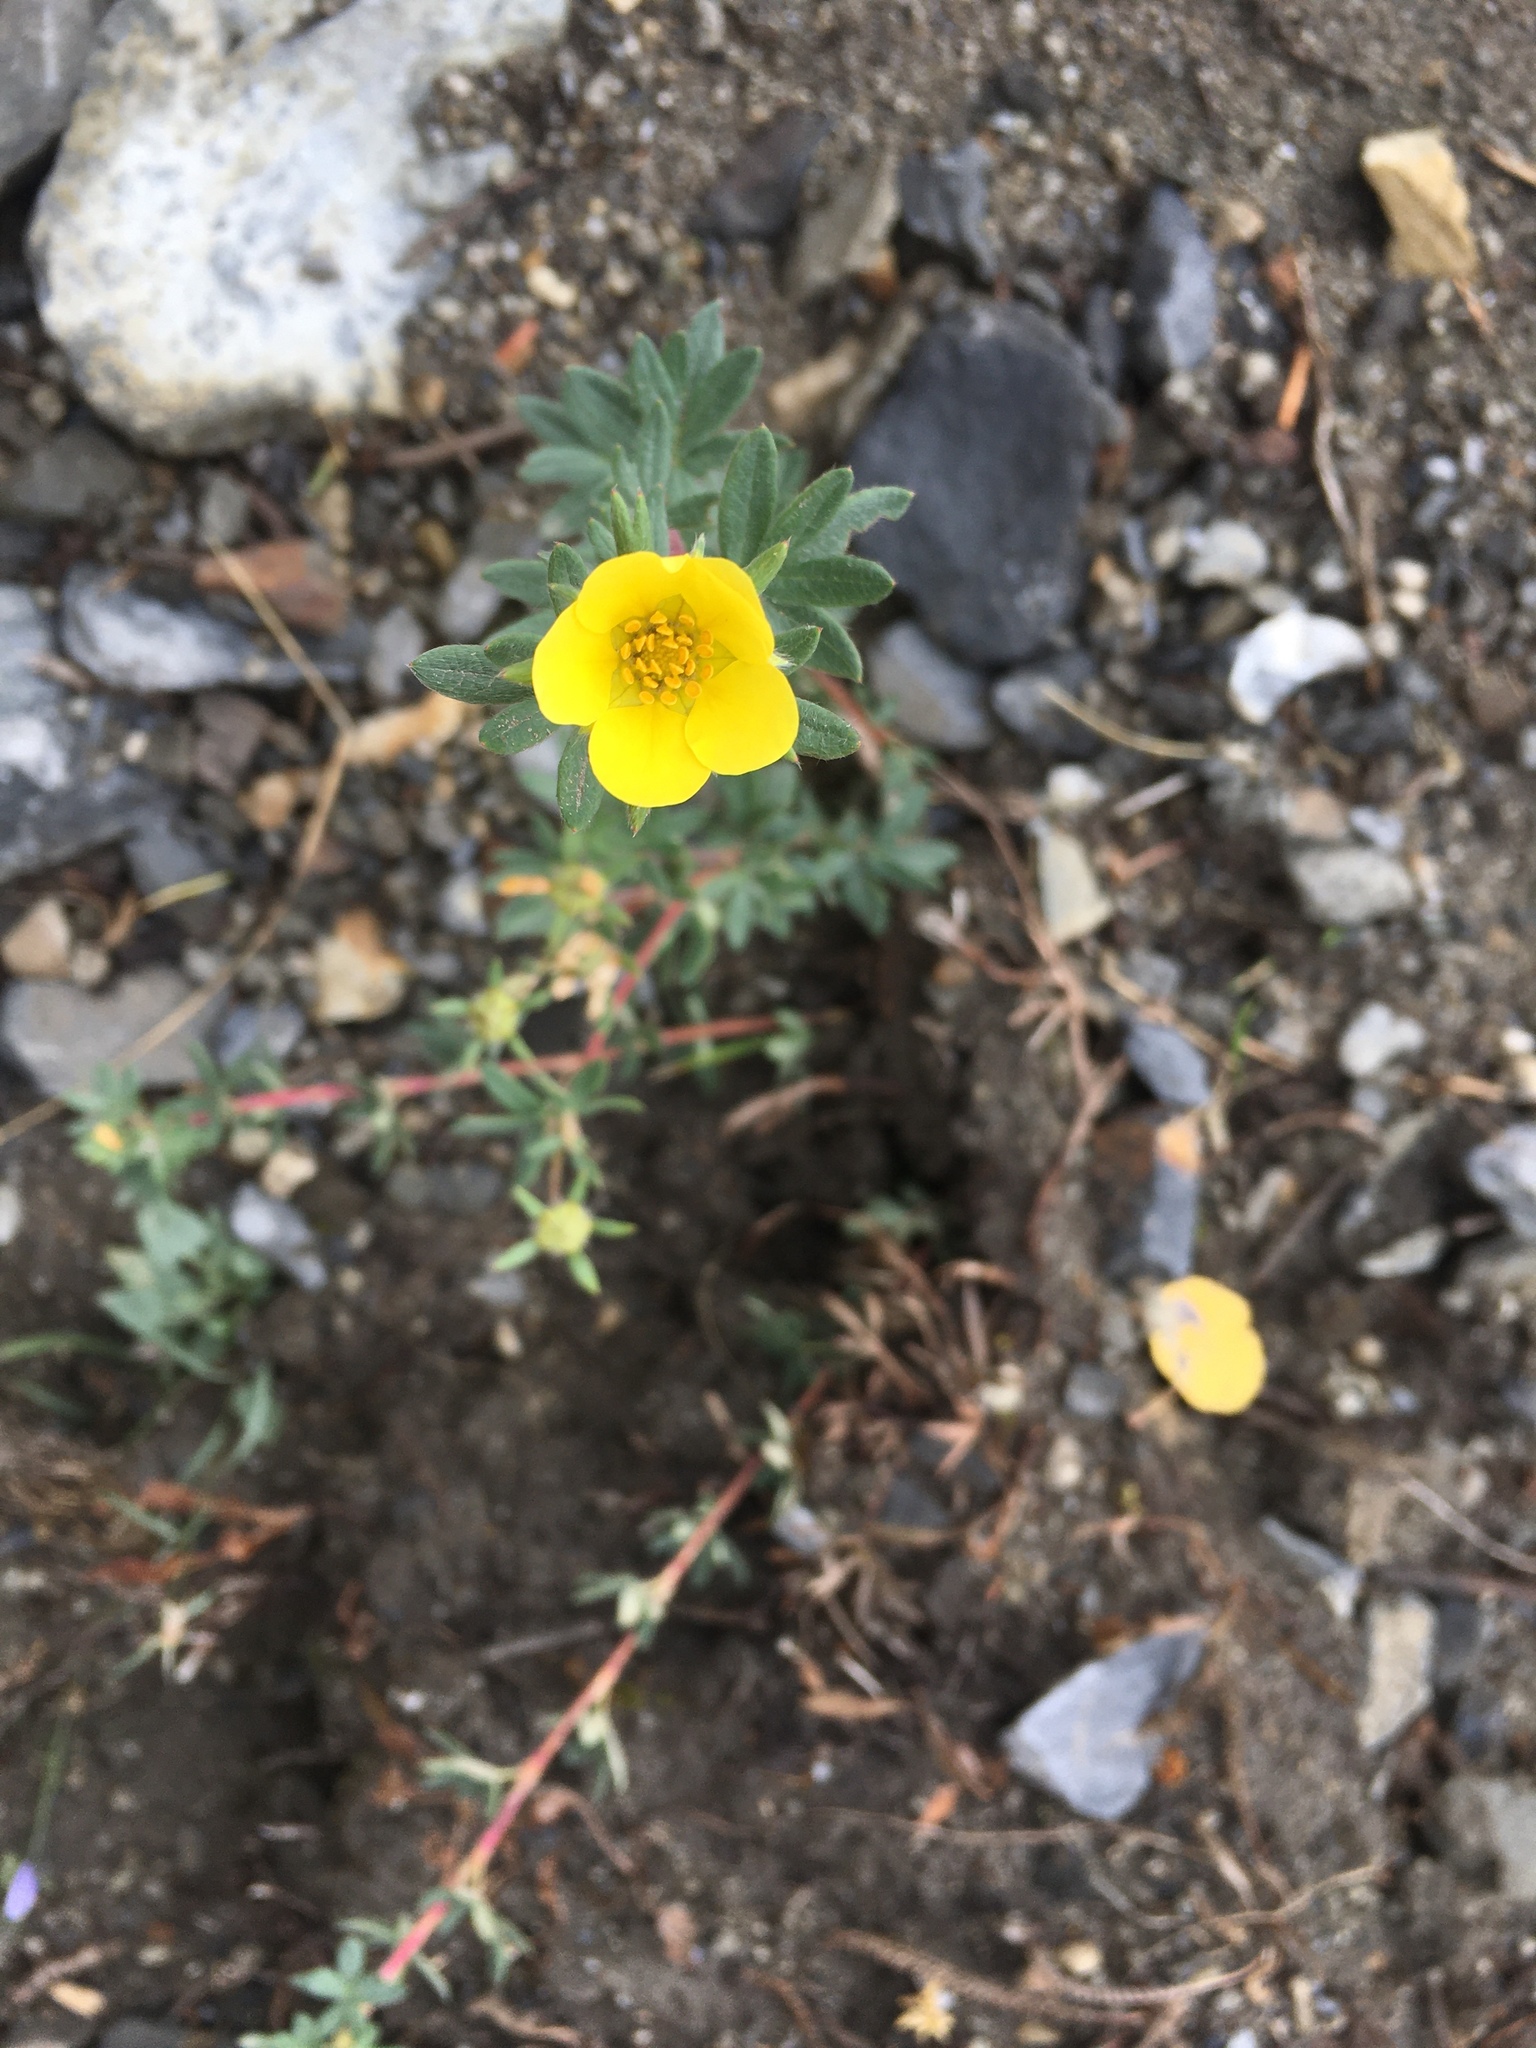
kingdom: Plantae
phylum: Tracheophyta
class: Magnoliopsida
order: Rosales
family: Rosaceae
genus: Dasiphora
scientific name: Dasiphora fruticosa
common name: Shrubby cinquefoil
